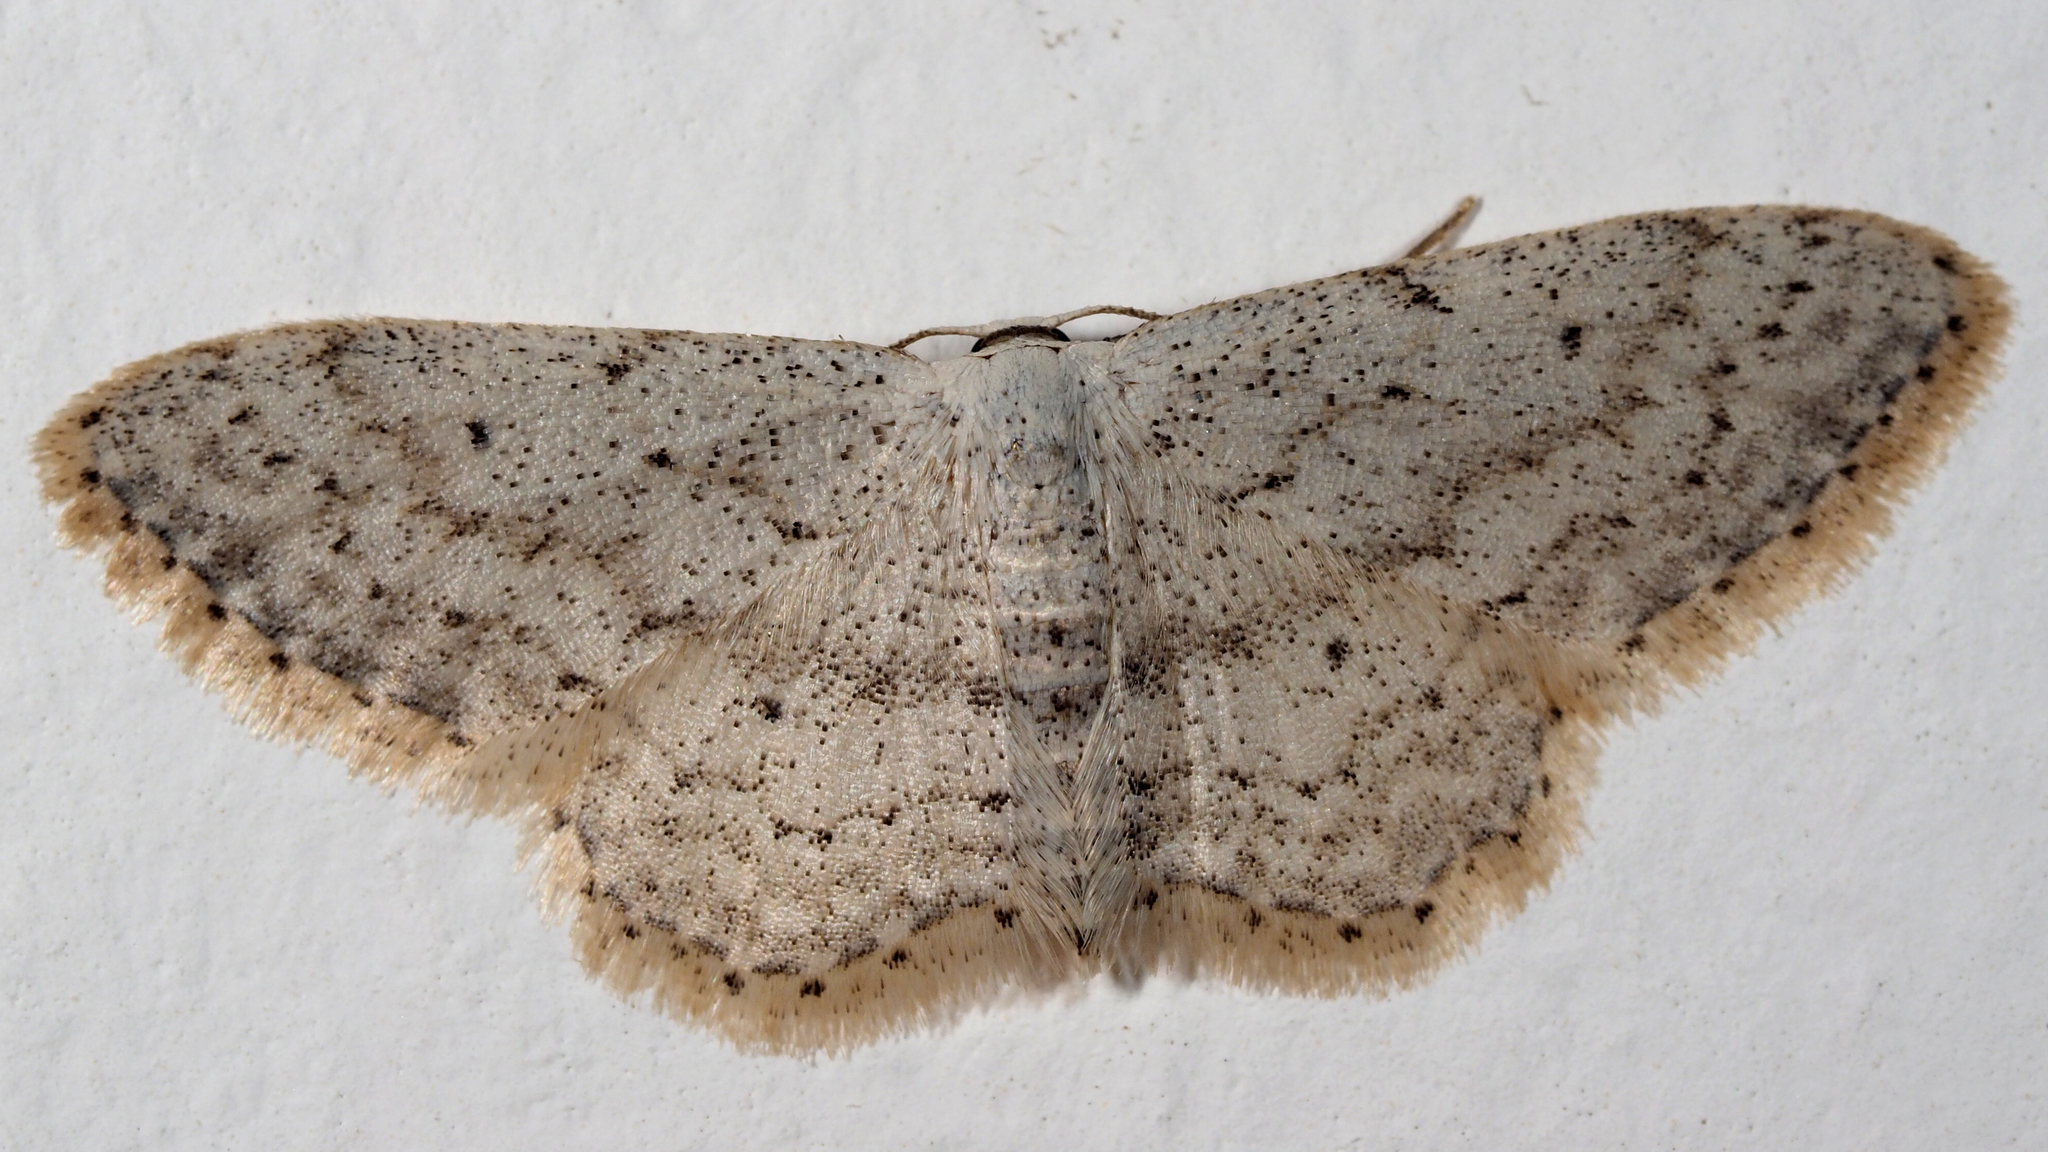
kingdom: Animalia
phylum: Arthropoda
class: Insecta
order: Lepidoptera
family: Geometridae
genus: Idaea
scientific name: Idaea seriata
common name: Small dusty wave
